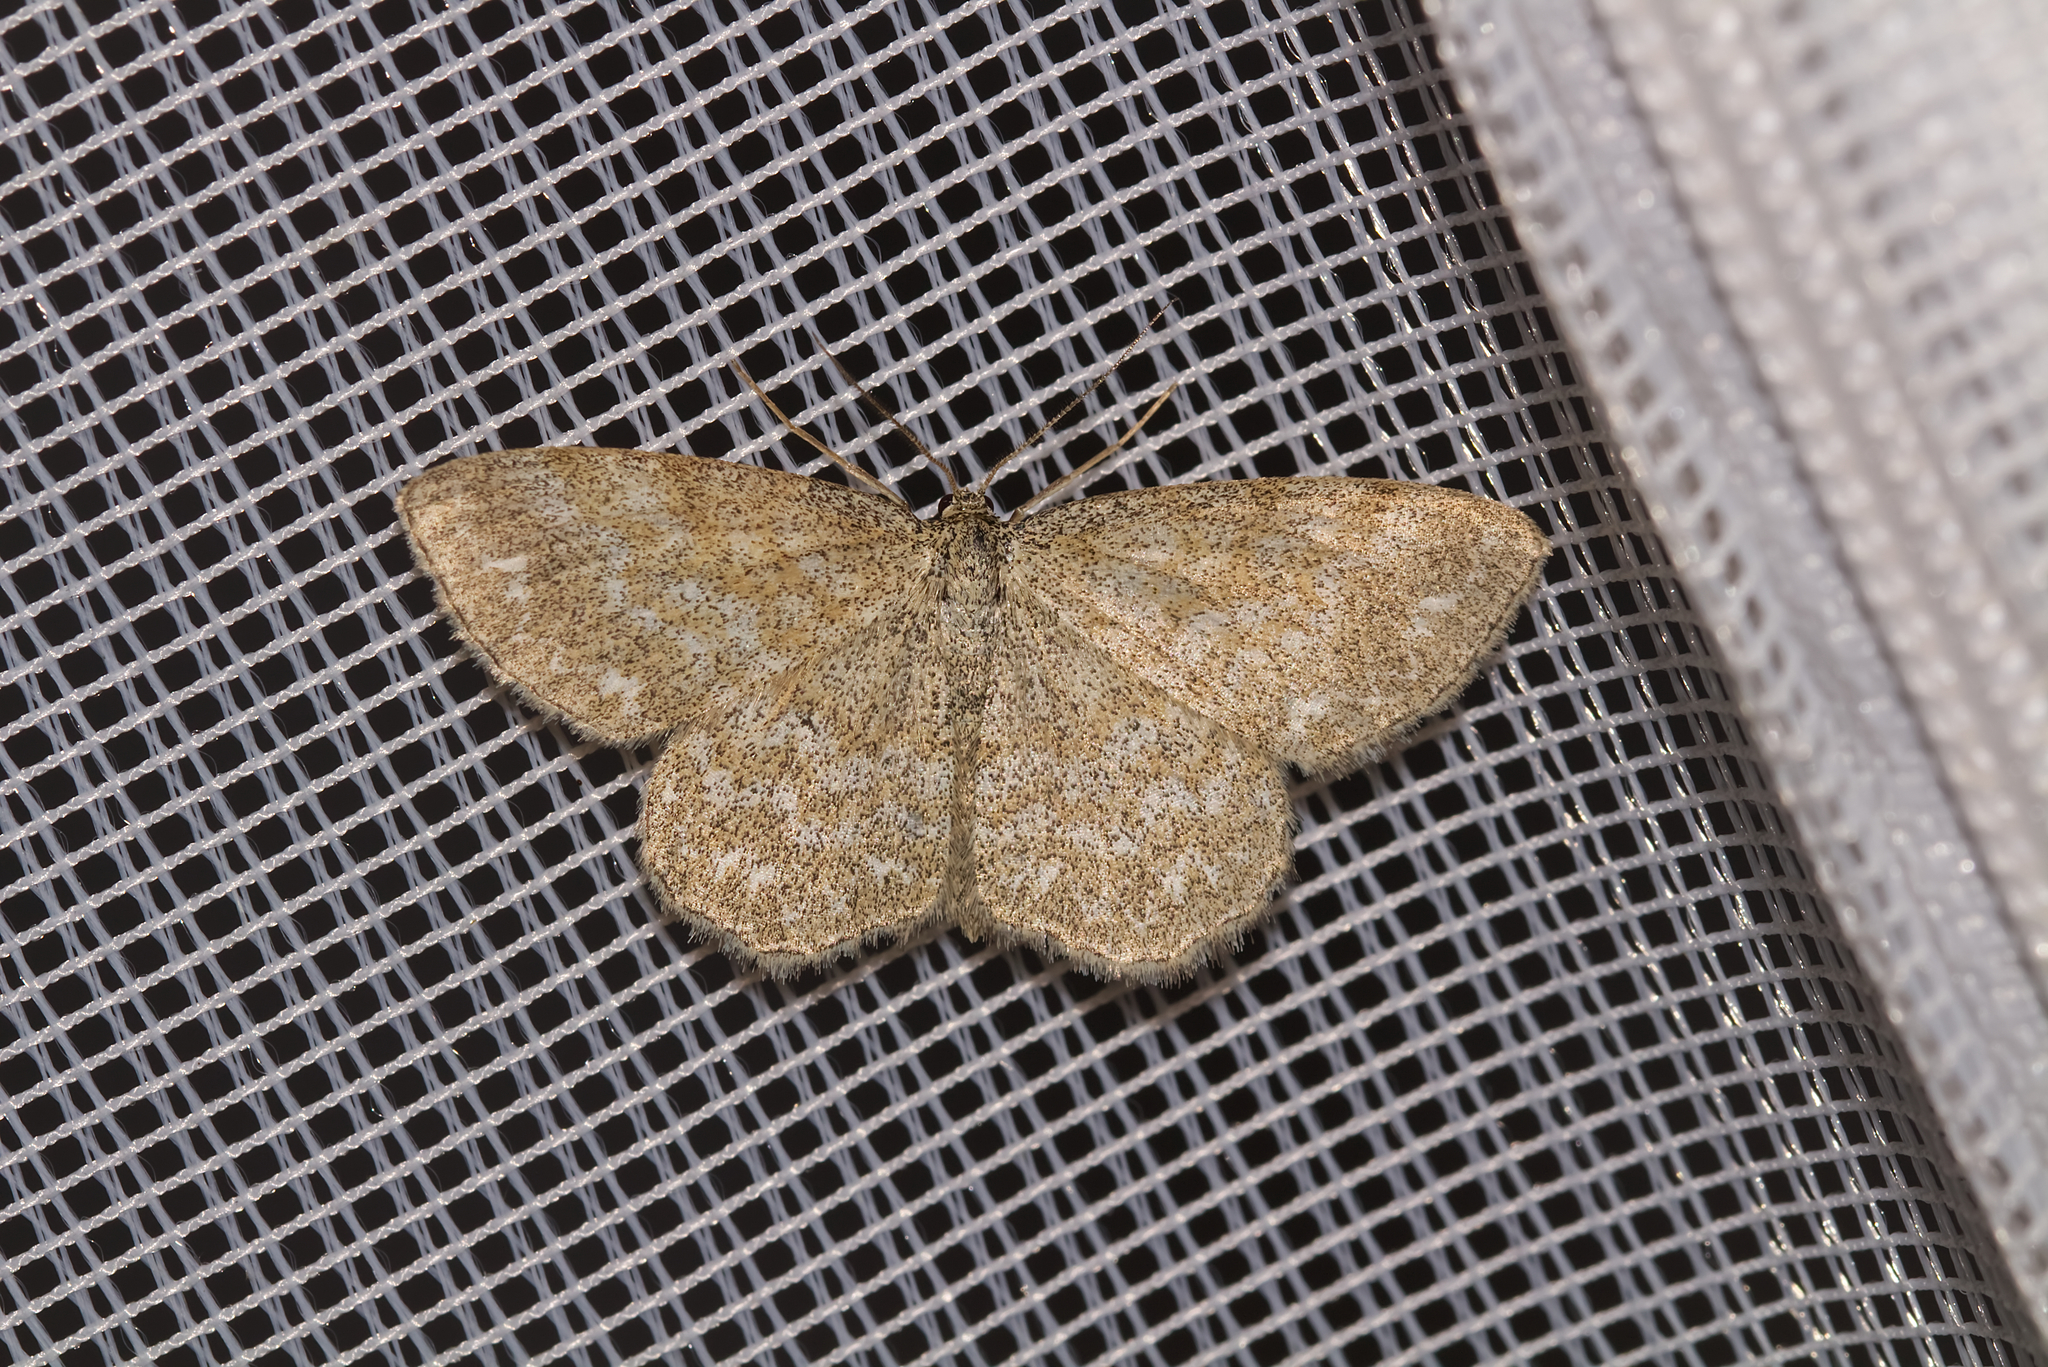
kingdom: Animalia
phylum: Arthropoda
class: Insecta
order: Lepidoptera
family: Geometridae
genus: Scopula
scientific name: Scopula immorata
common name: Lewes wave
